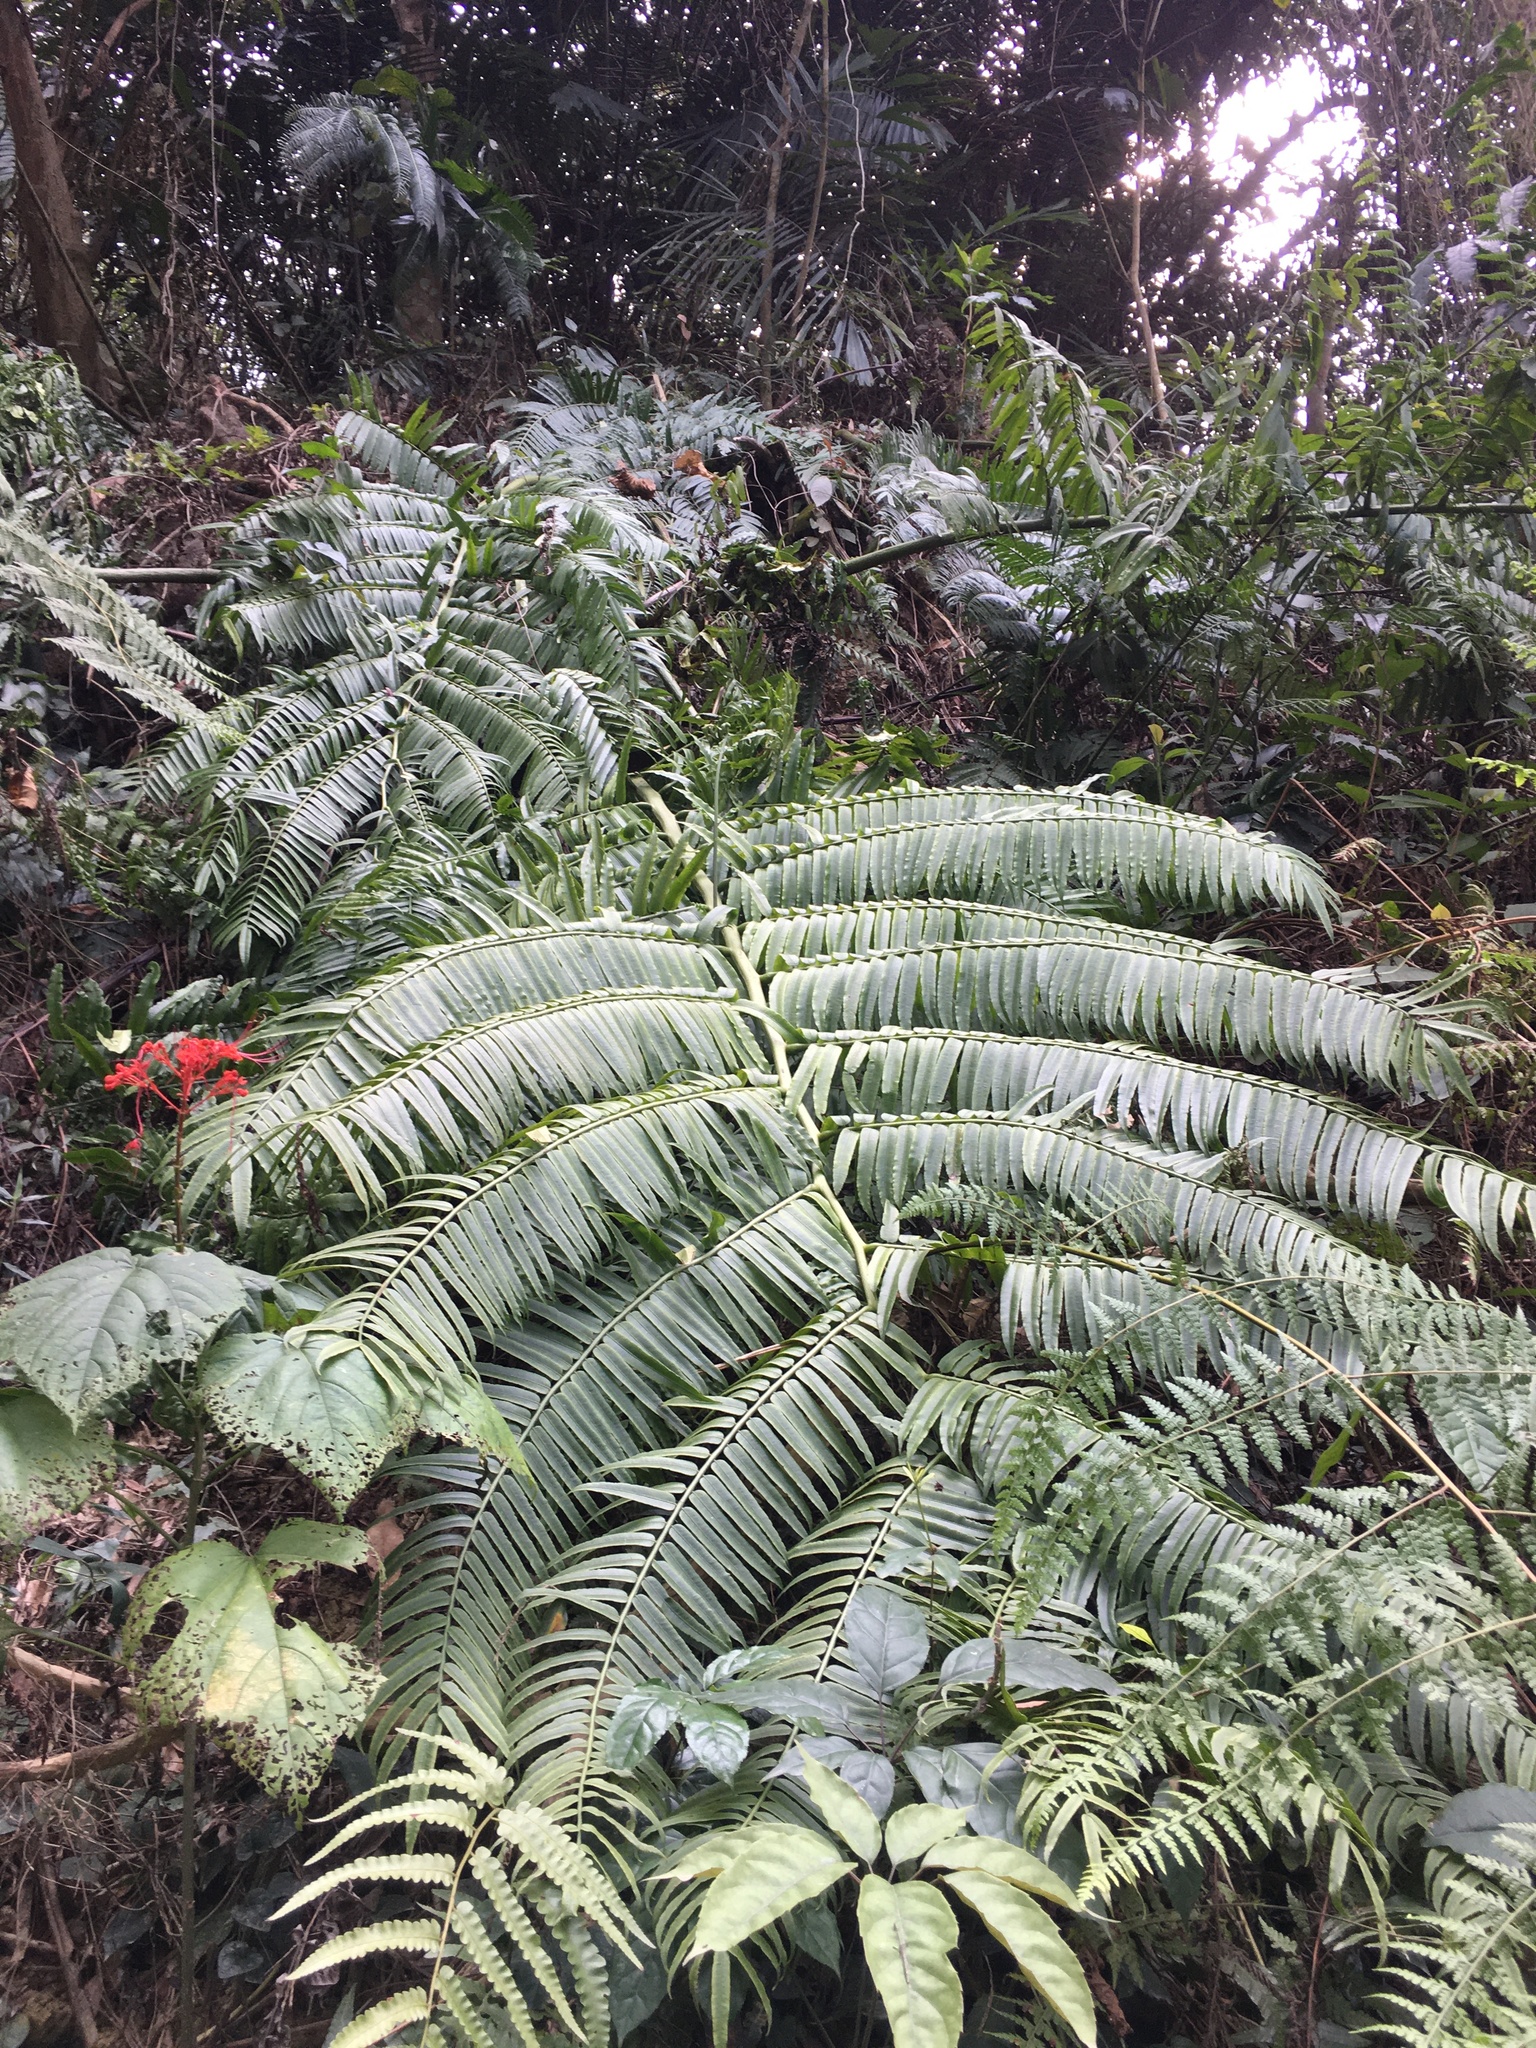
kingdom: Plantae
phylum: Tracheophyta
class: Polypodiopsida
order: Marattiales
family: Marattiaceae
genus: Angiopteris
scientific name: Angiopteris lygodiifolia
